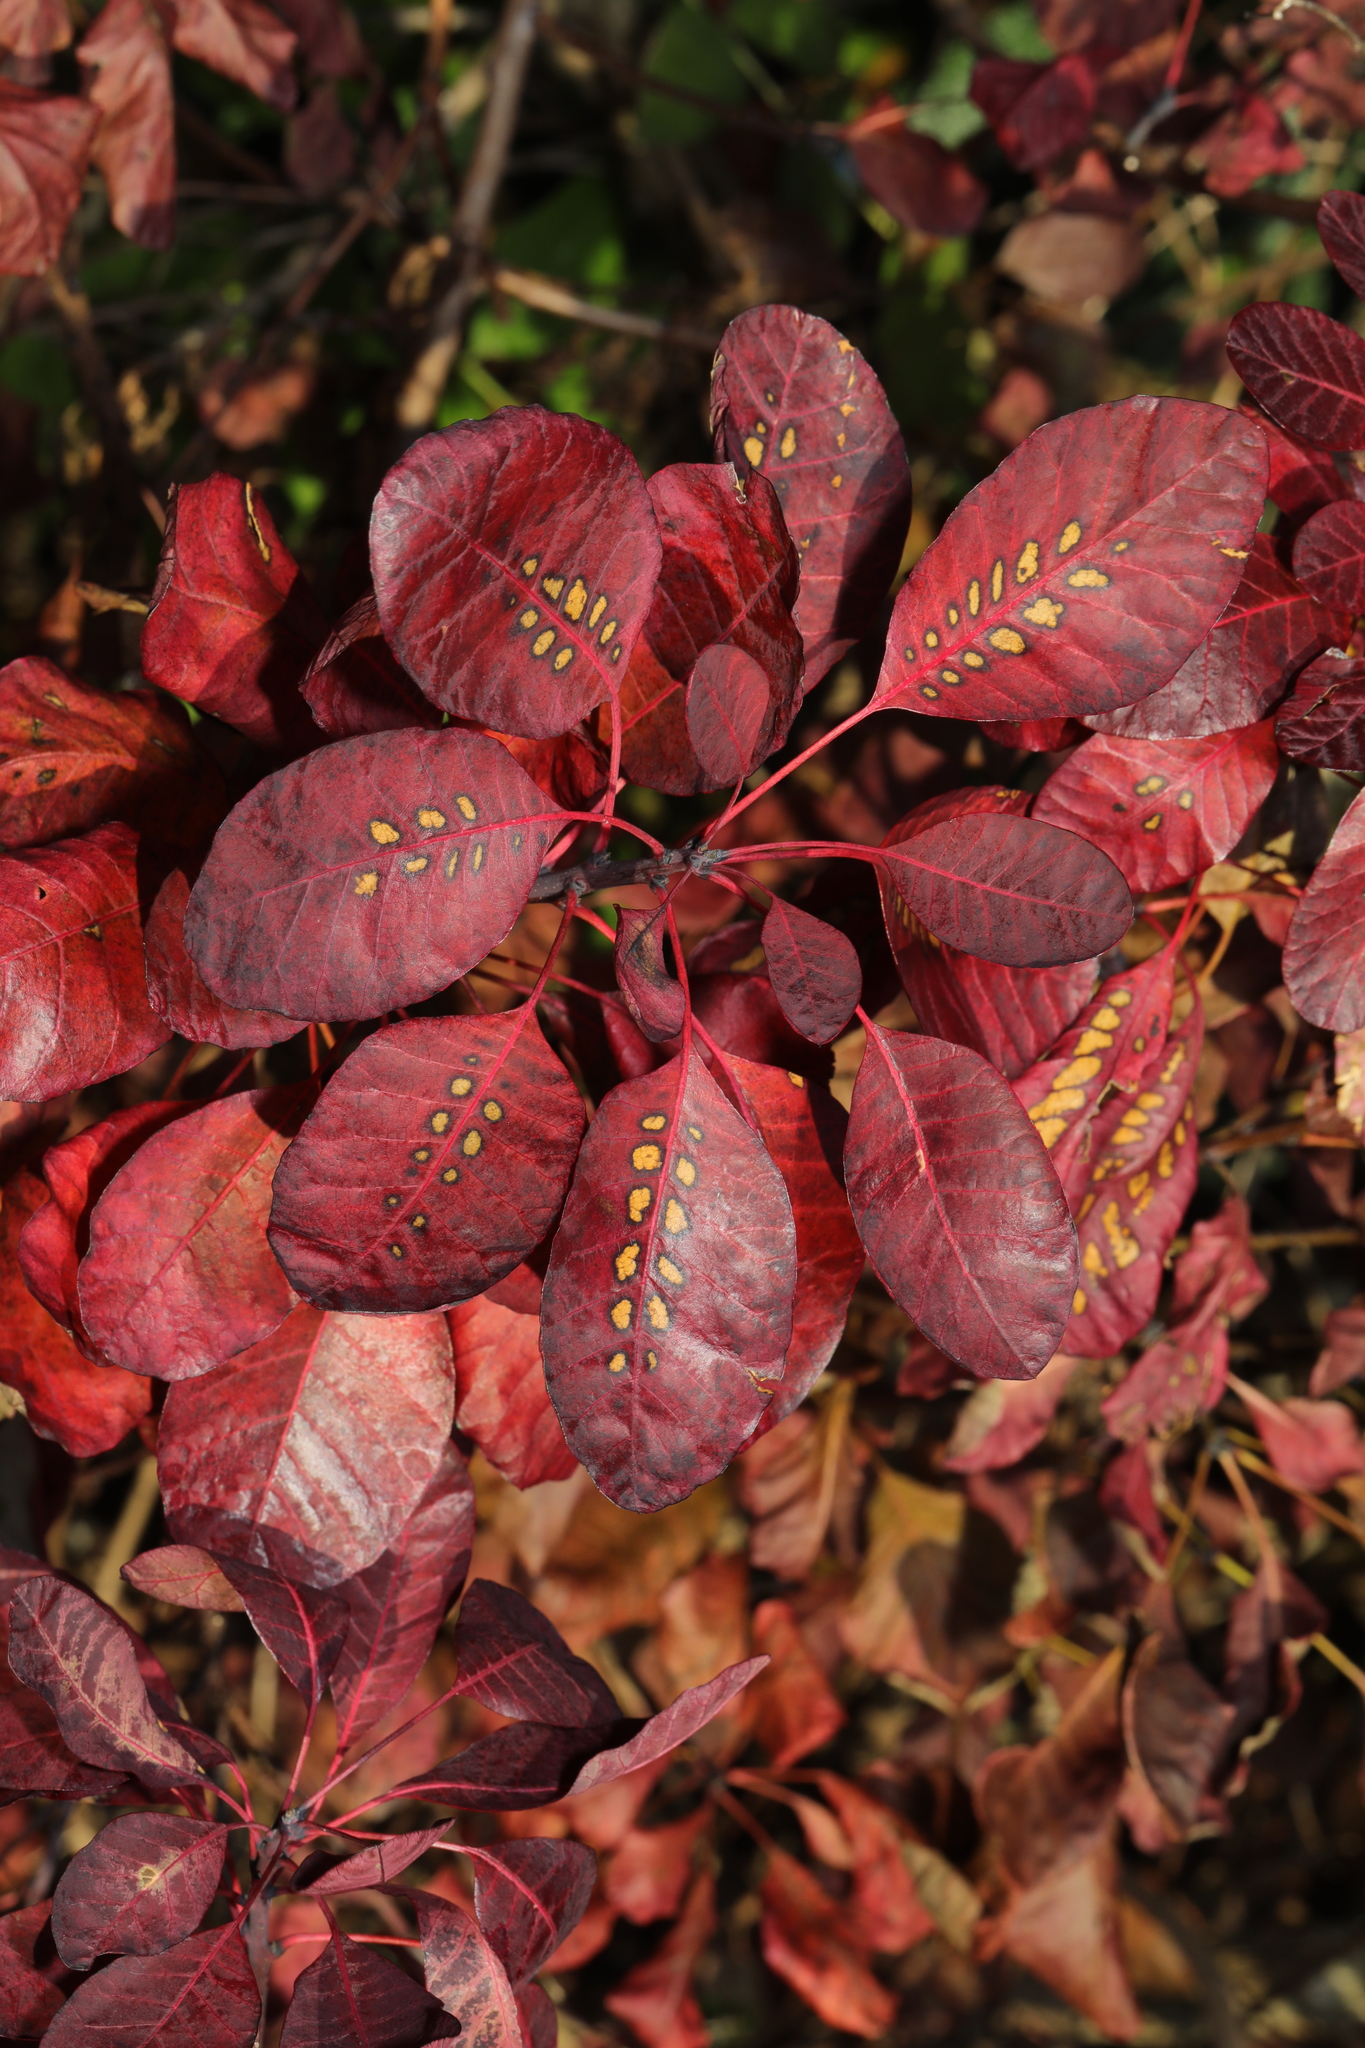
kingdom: Plantae
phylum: Tracheophyta
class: Magnoliopsida
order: Sapindales
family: Anacardiaceae
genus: Cotinus
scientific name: Cotinus coggygria
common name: Smoke-tree
